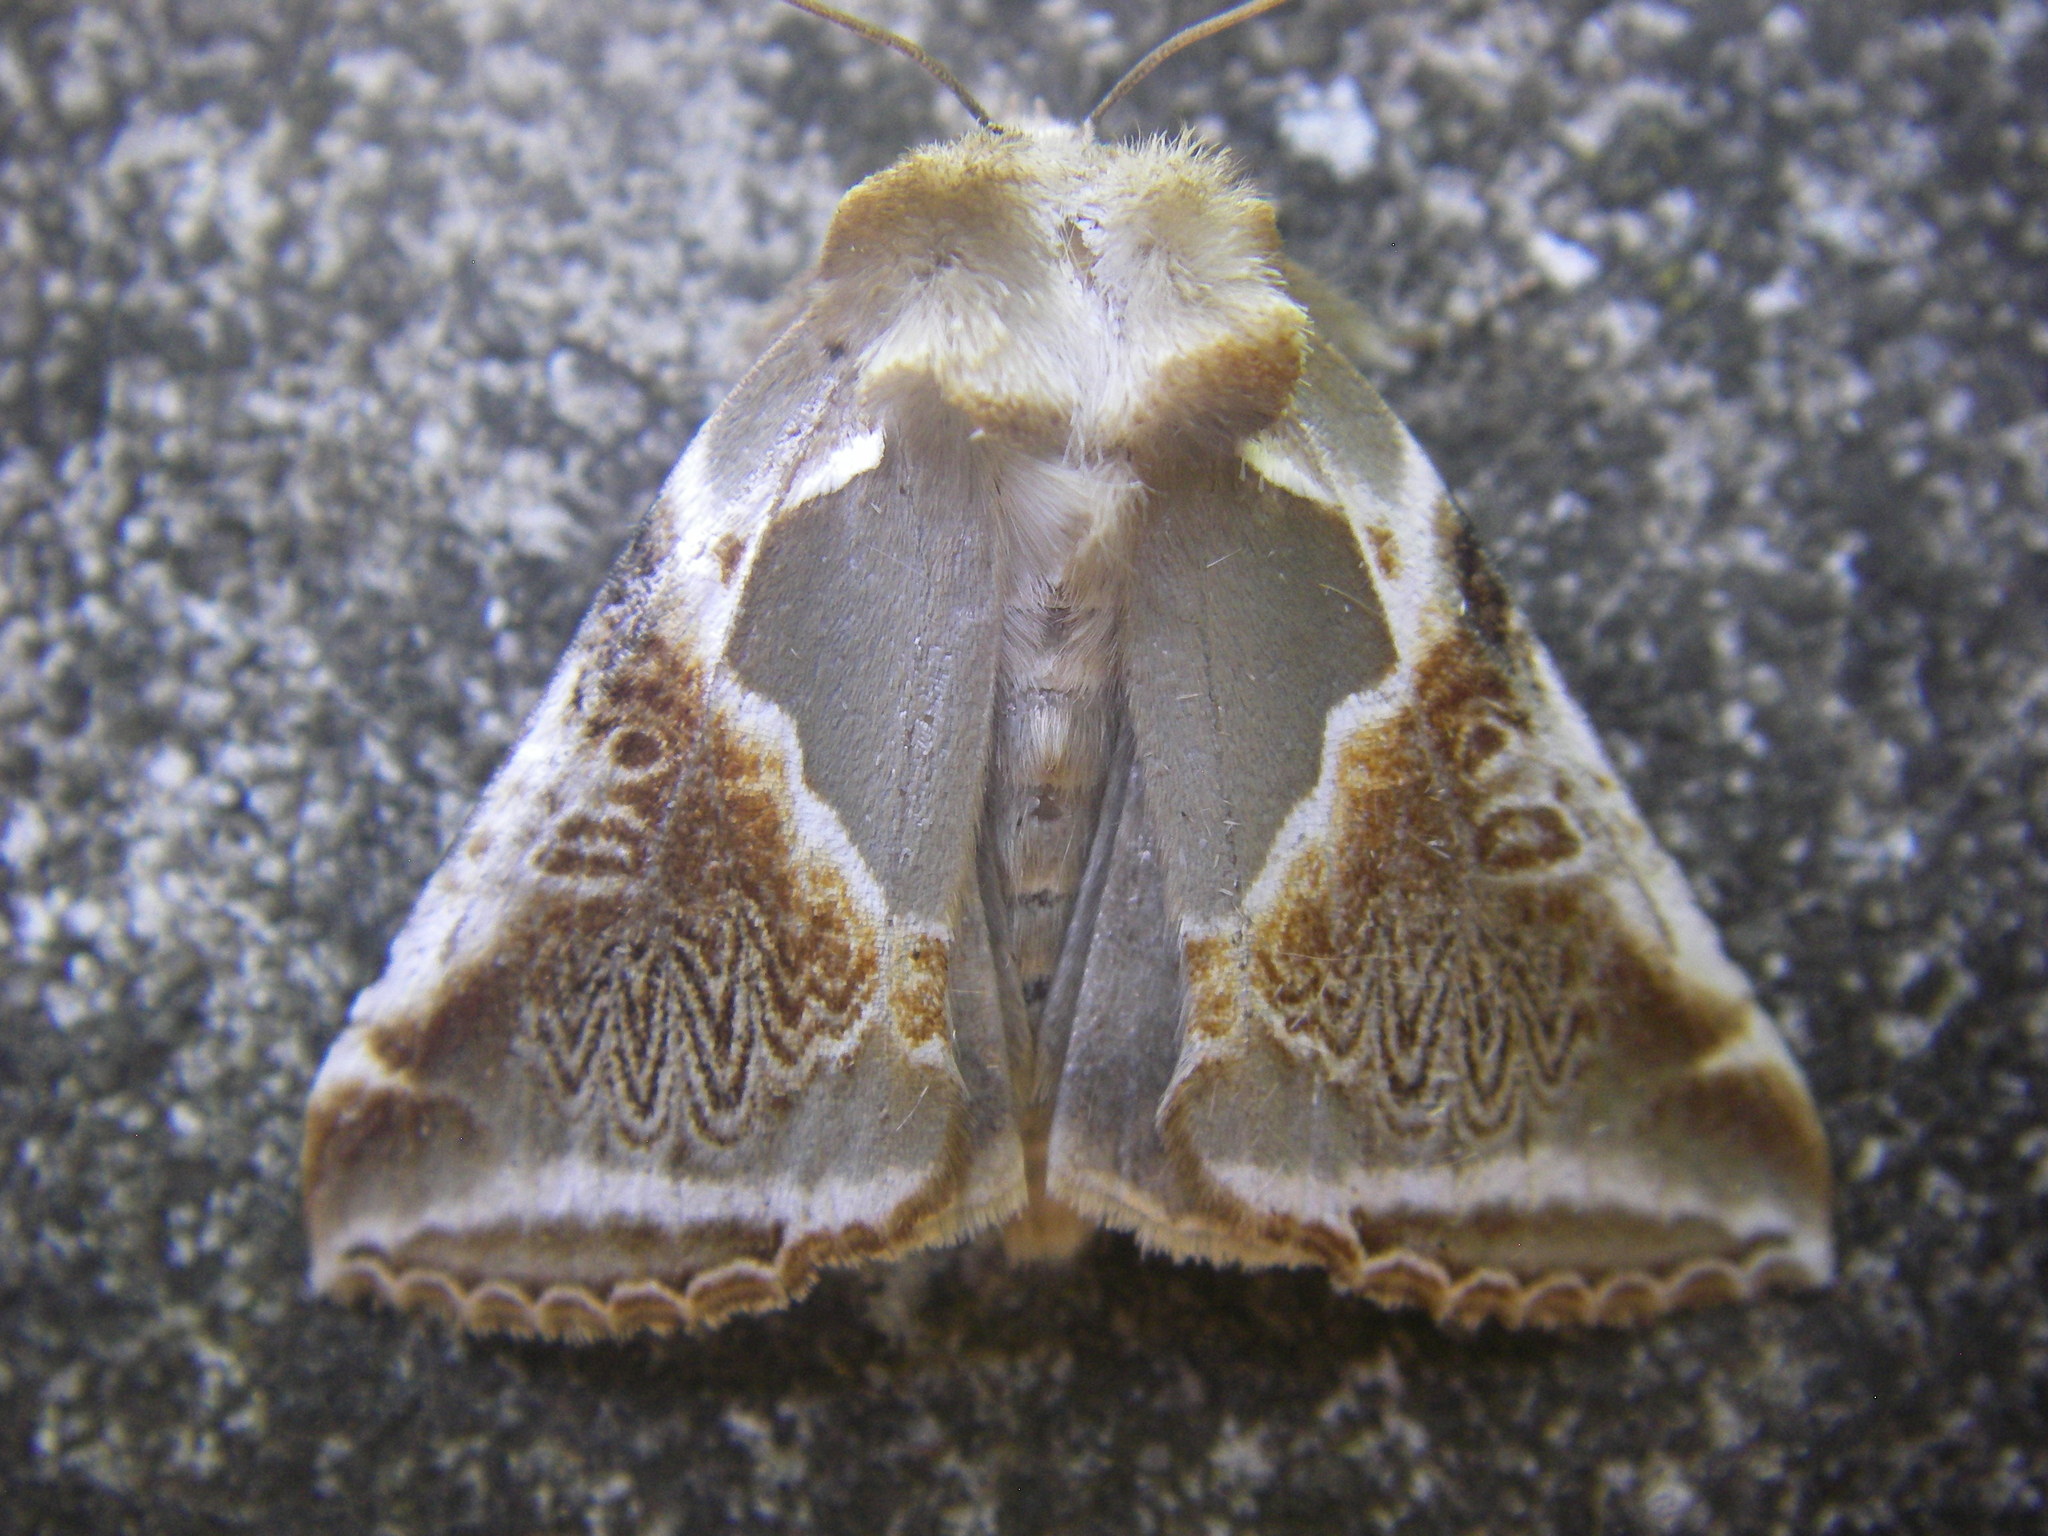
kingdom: Animalia
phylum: Arthropoda
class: Insecta
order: Lepidoptera
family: Drepanidae
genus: Habrosyne
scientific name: Habrosyne pyritoides
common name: Buff arches
